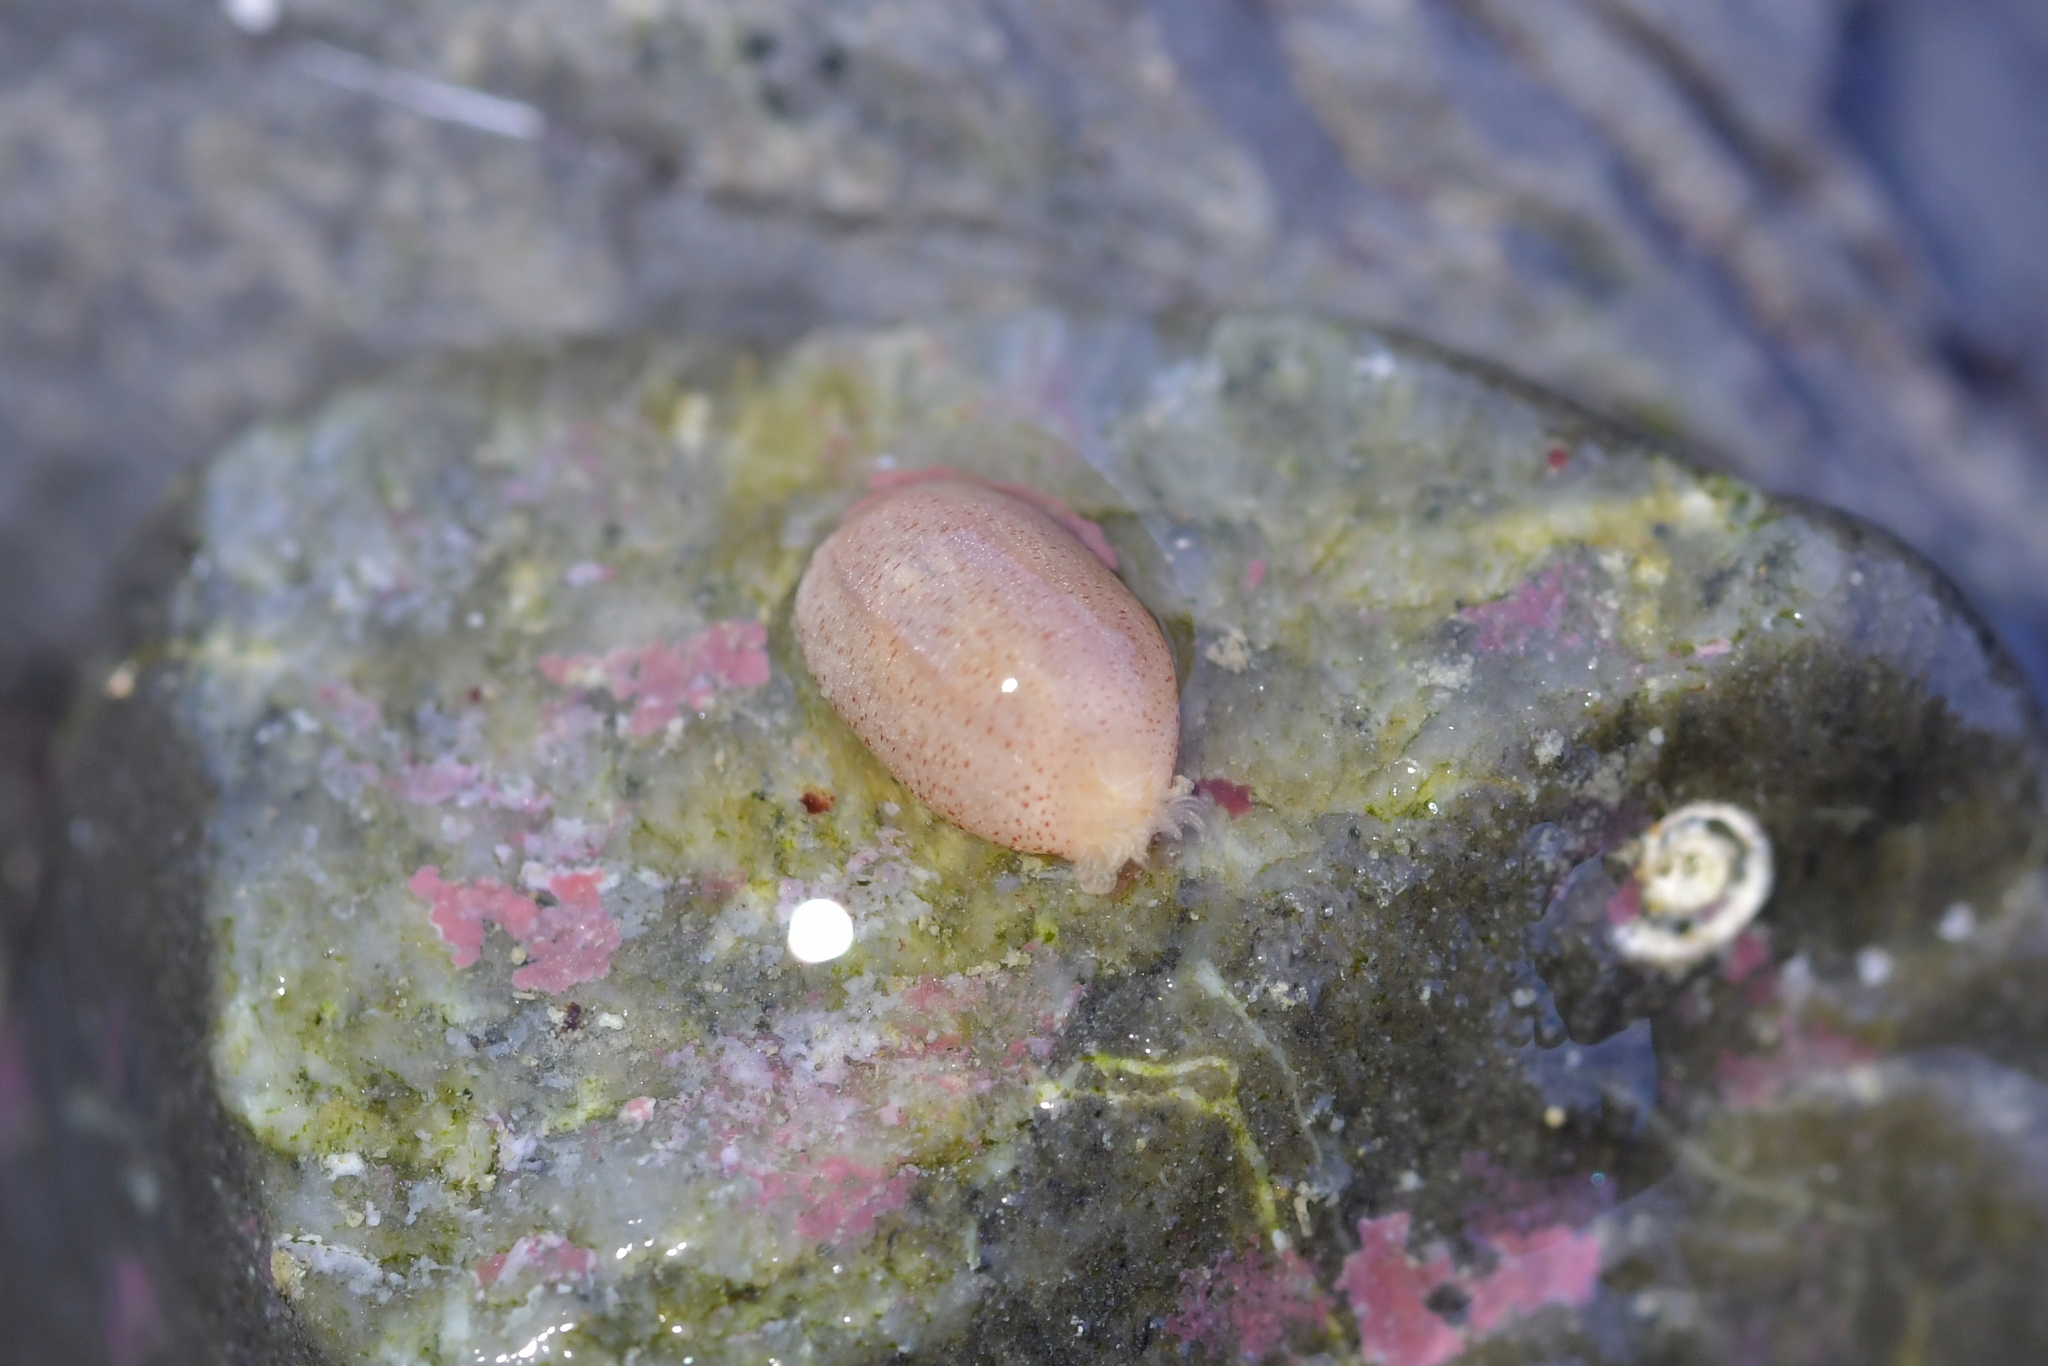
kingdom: Animalia
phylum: Echinodermata
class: Holothuroidea
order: Apodida
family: Chiridotidae
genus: Taeniogyrus
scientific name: Taeniogyrus dunedinensis
